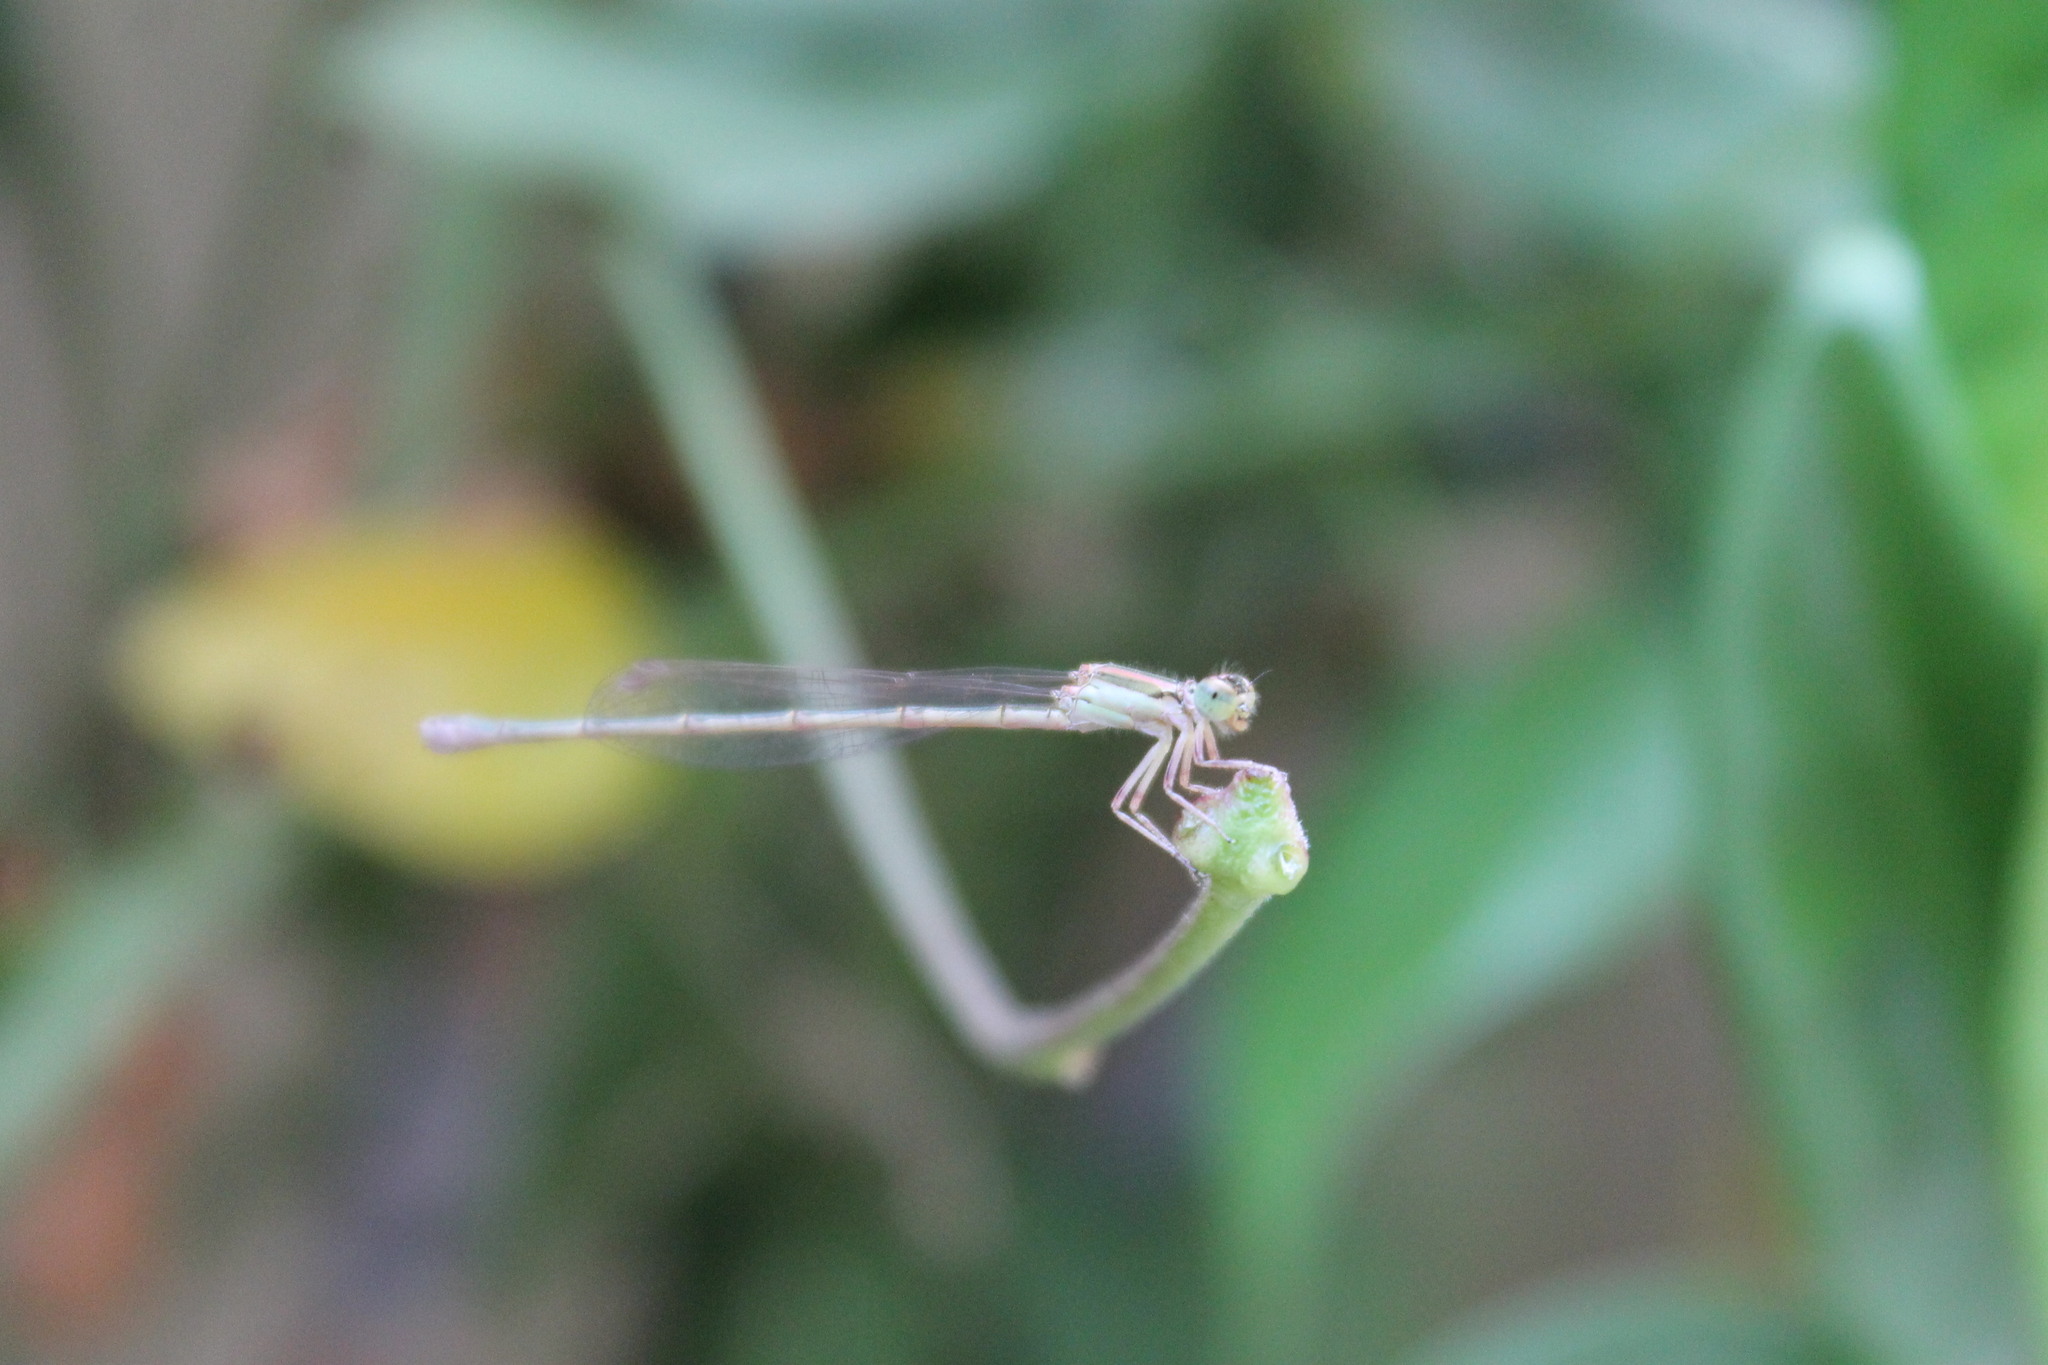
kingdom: Animalia
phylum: Arthropoda
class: Insecta
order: Odonata
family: Coenagrionidae
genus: Ischnura
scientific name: Ischnura aurora
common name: Gossamer damselfly
